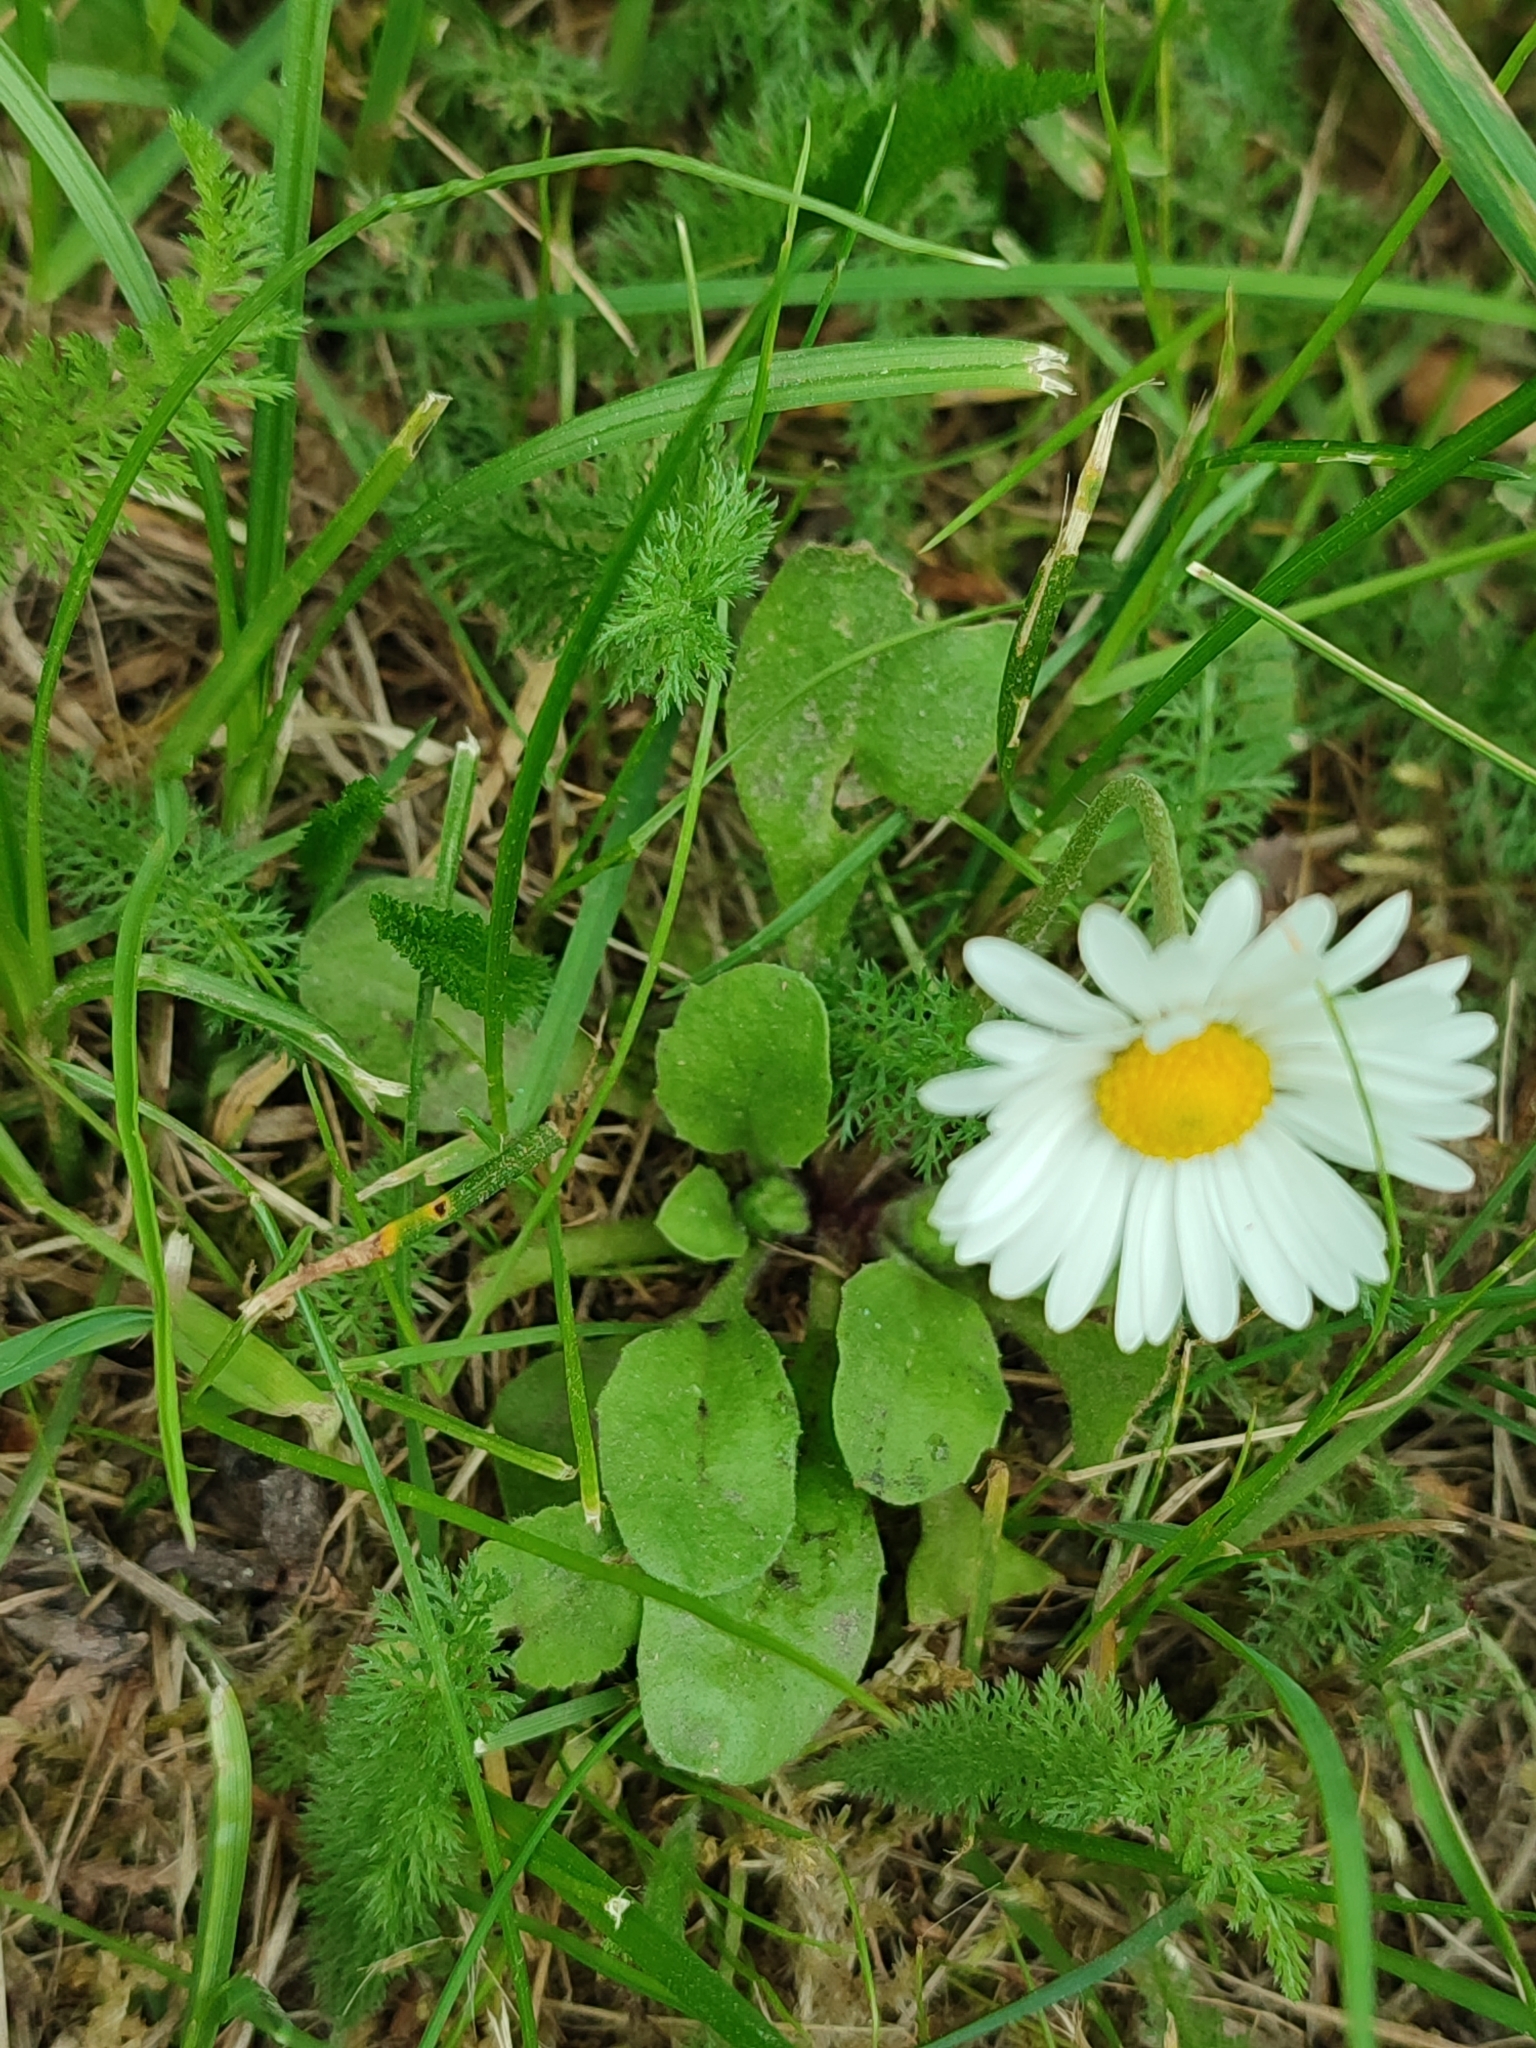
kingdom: Plantae
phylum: Tracheophyta
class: Magnoliopsida
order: Asterales
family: Asteraceae
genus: Bellis
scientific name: Bellis perennis
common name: Lawndaisy
